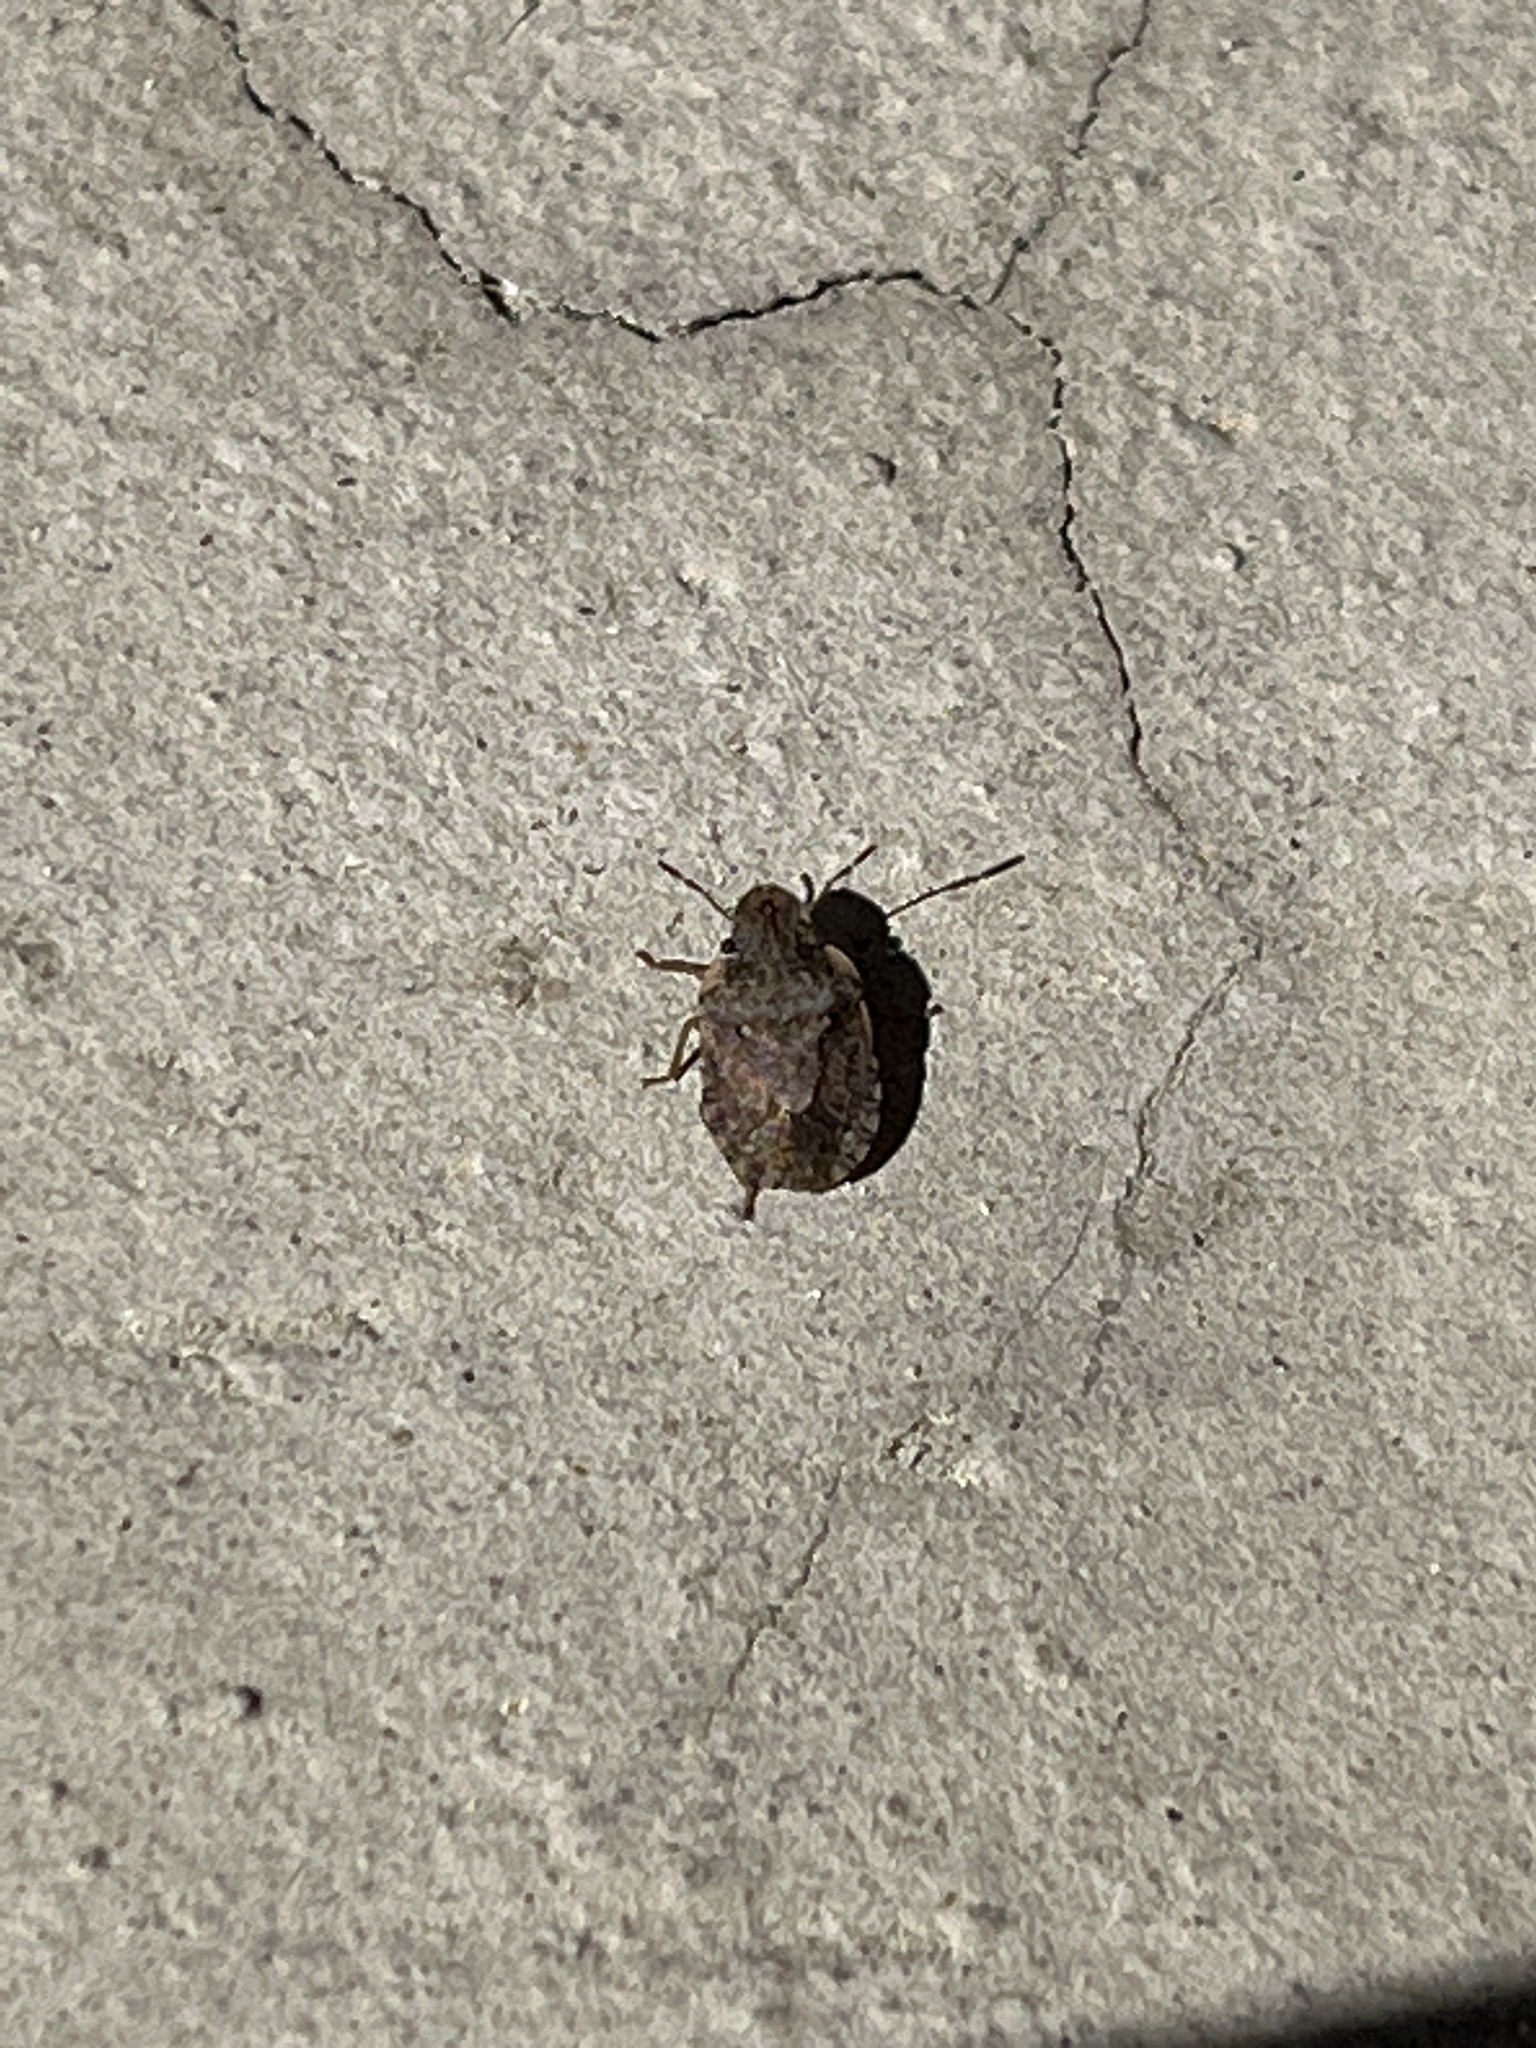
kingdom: Animalia
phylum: Arthropoda
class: Insecta
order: Hemiptera
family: Pentatomidae
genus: Sciocoris
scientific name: Sciocoris sideritidis
